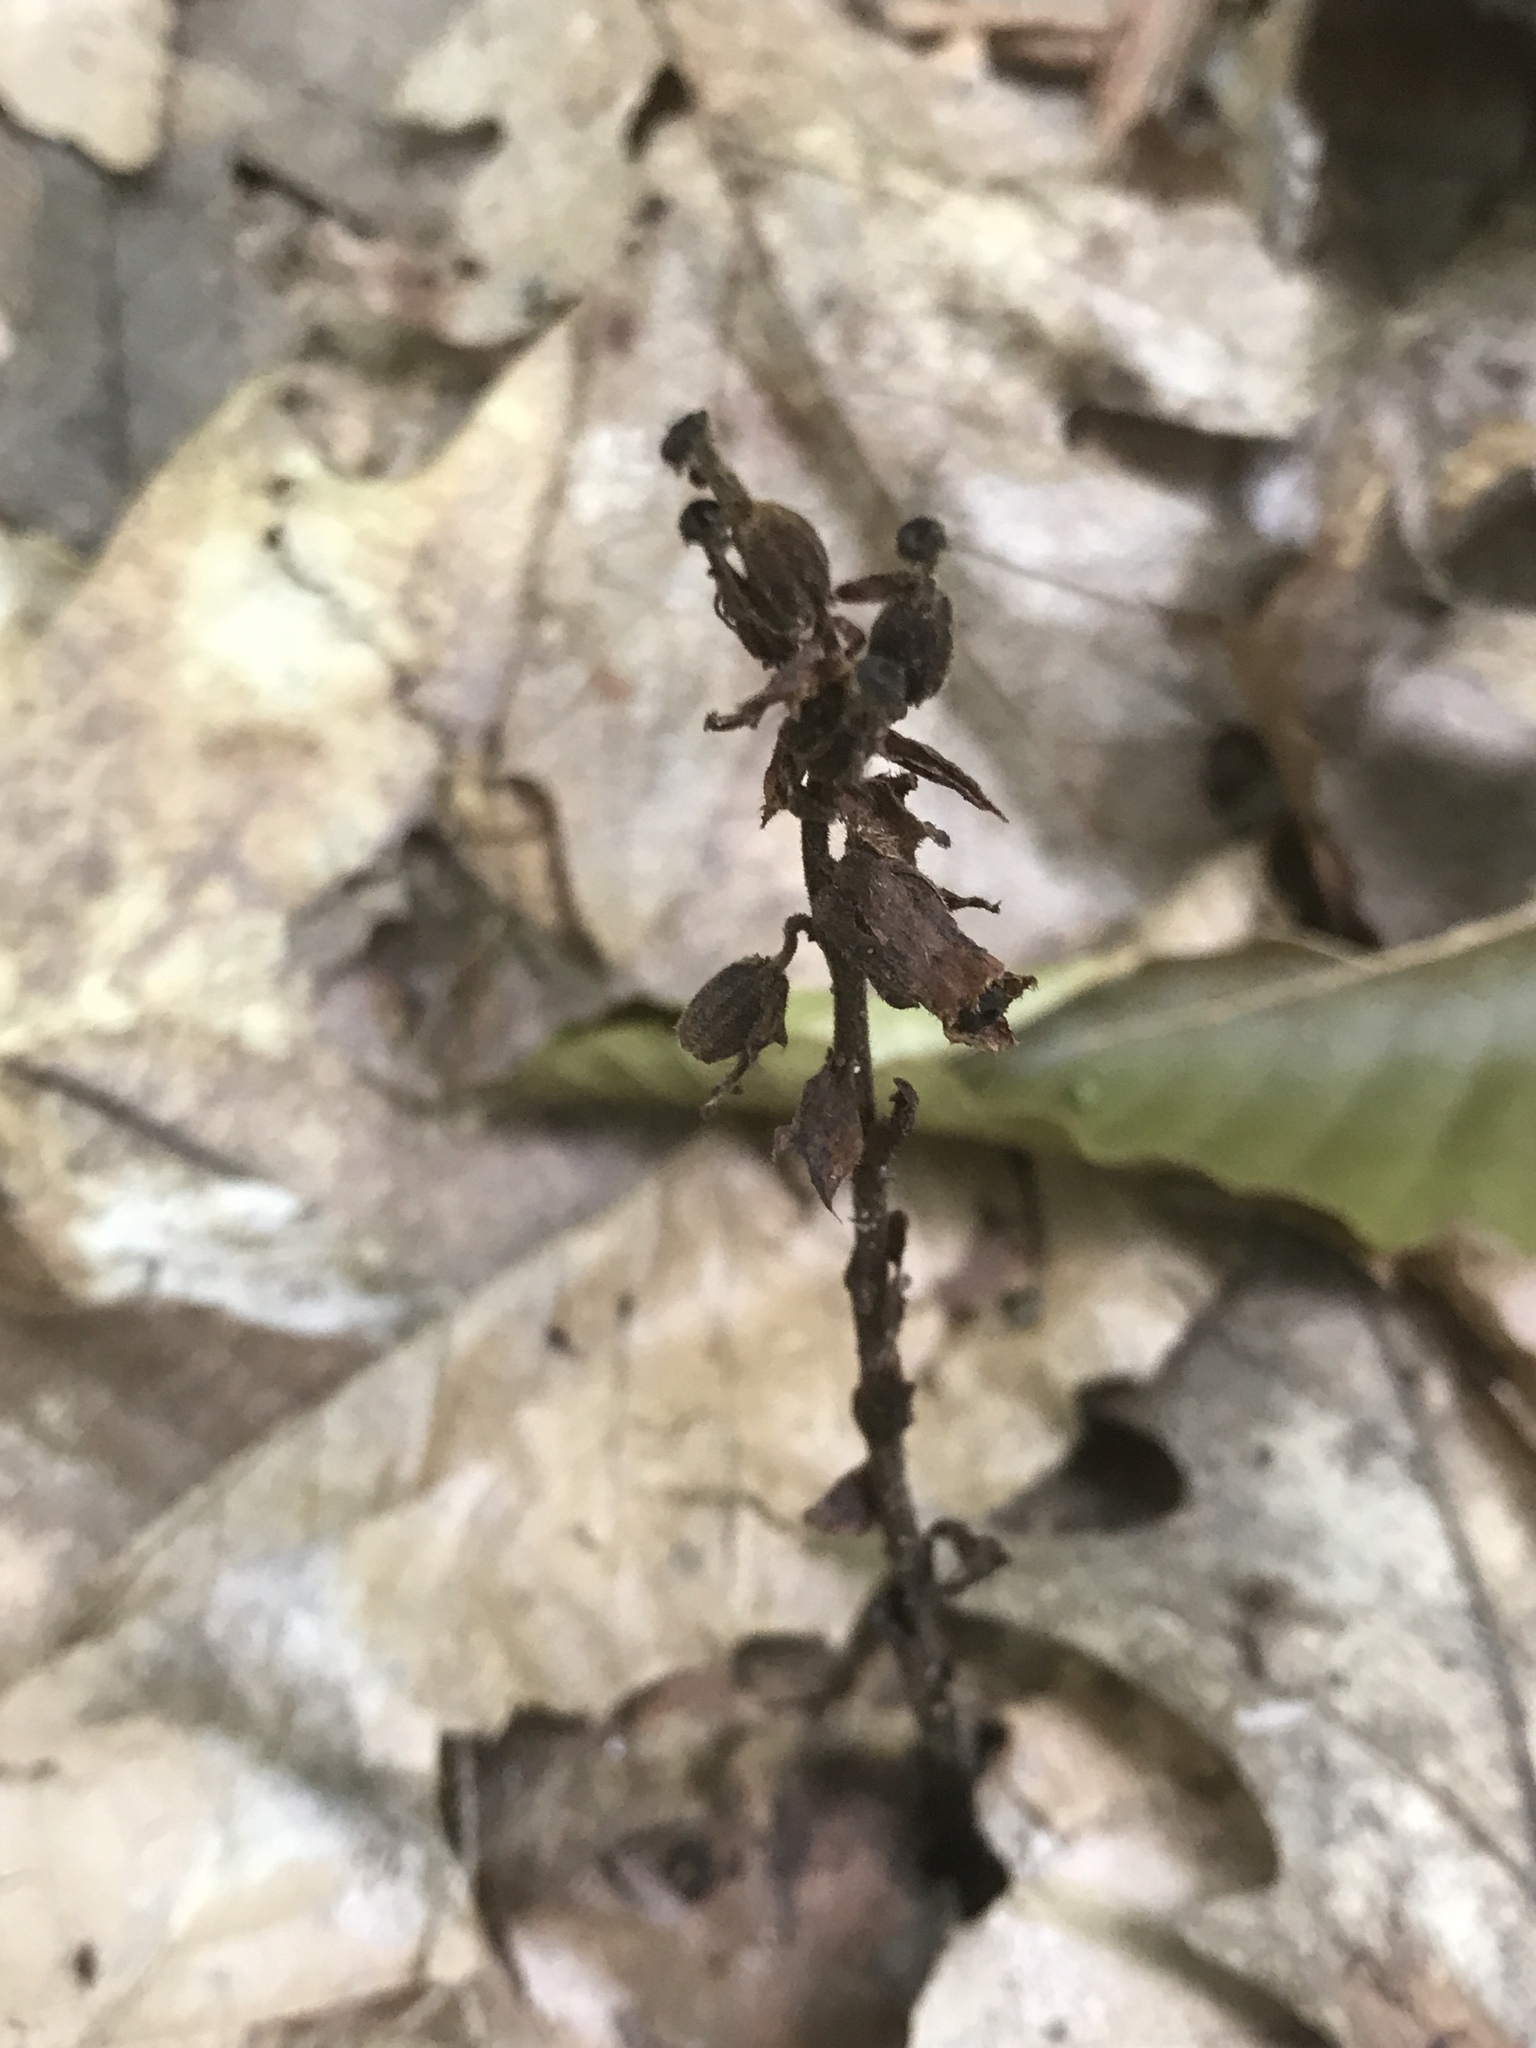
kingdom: Plantae
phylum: Tracheophyta
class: Magnoliopsida
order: Ericales
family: Ericaceae
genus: Hypopitys
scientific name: Hypopitys monotropa
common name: Yellow bird's-nest
